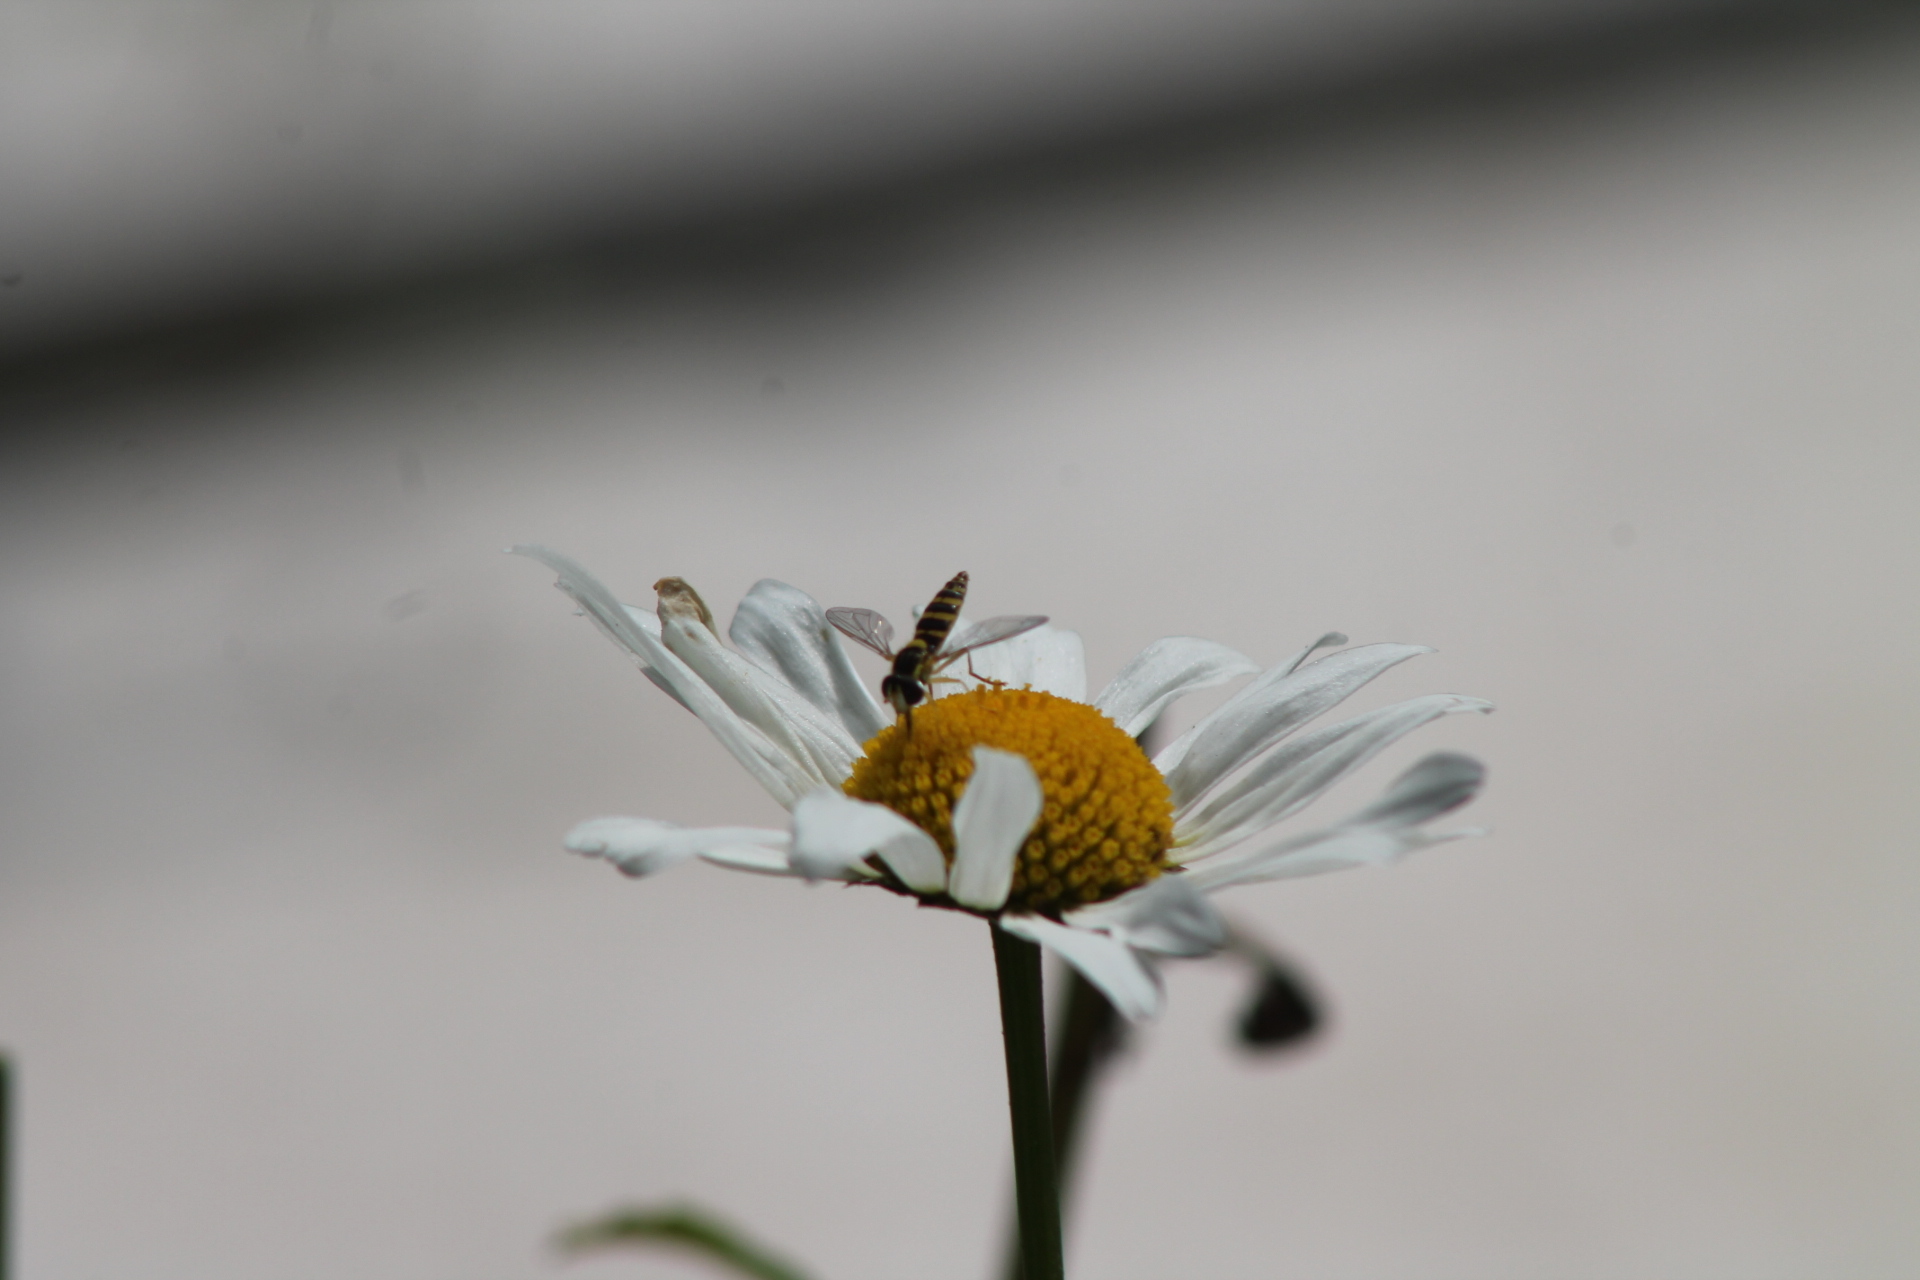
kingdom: Animalia
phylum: Arthropoda
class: Insecta
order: Diptera
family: Syrphidae
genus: Sphaerophoria
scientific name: Sphaerophoria
